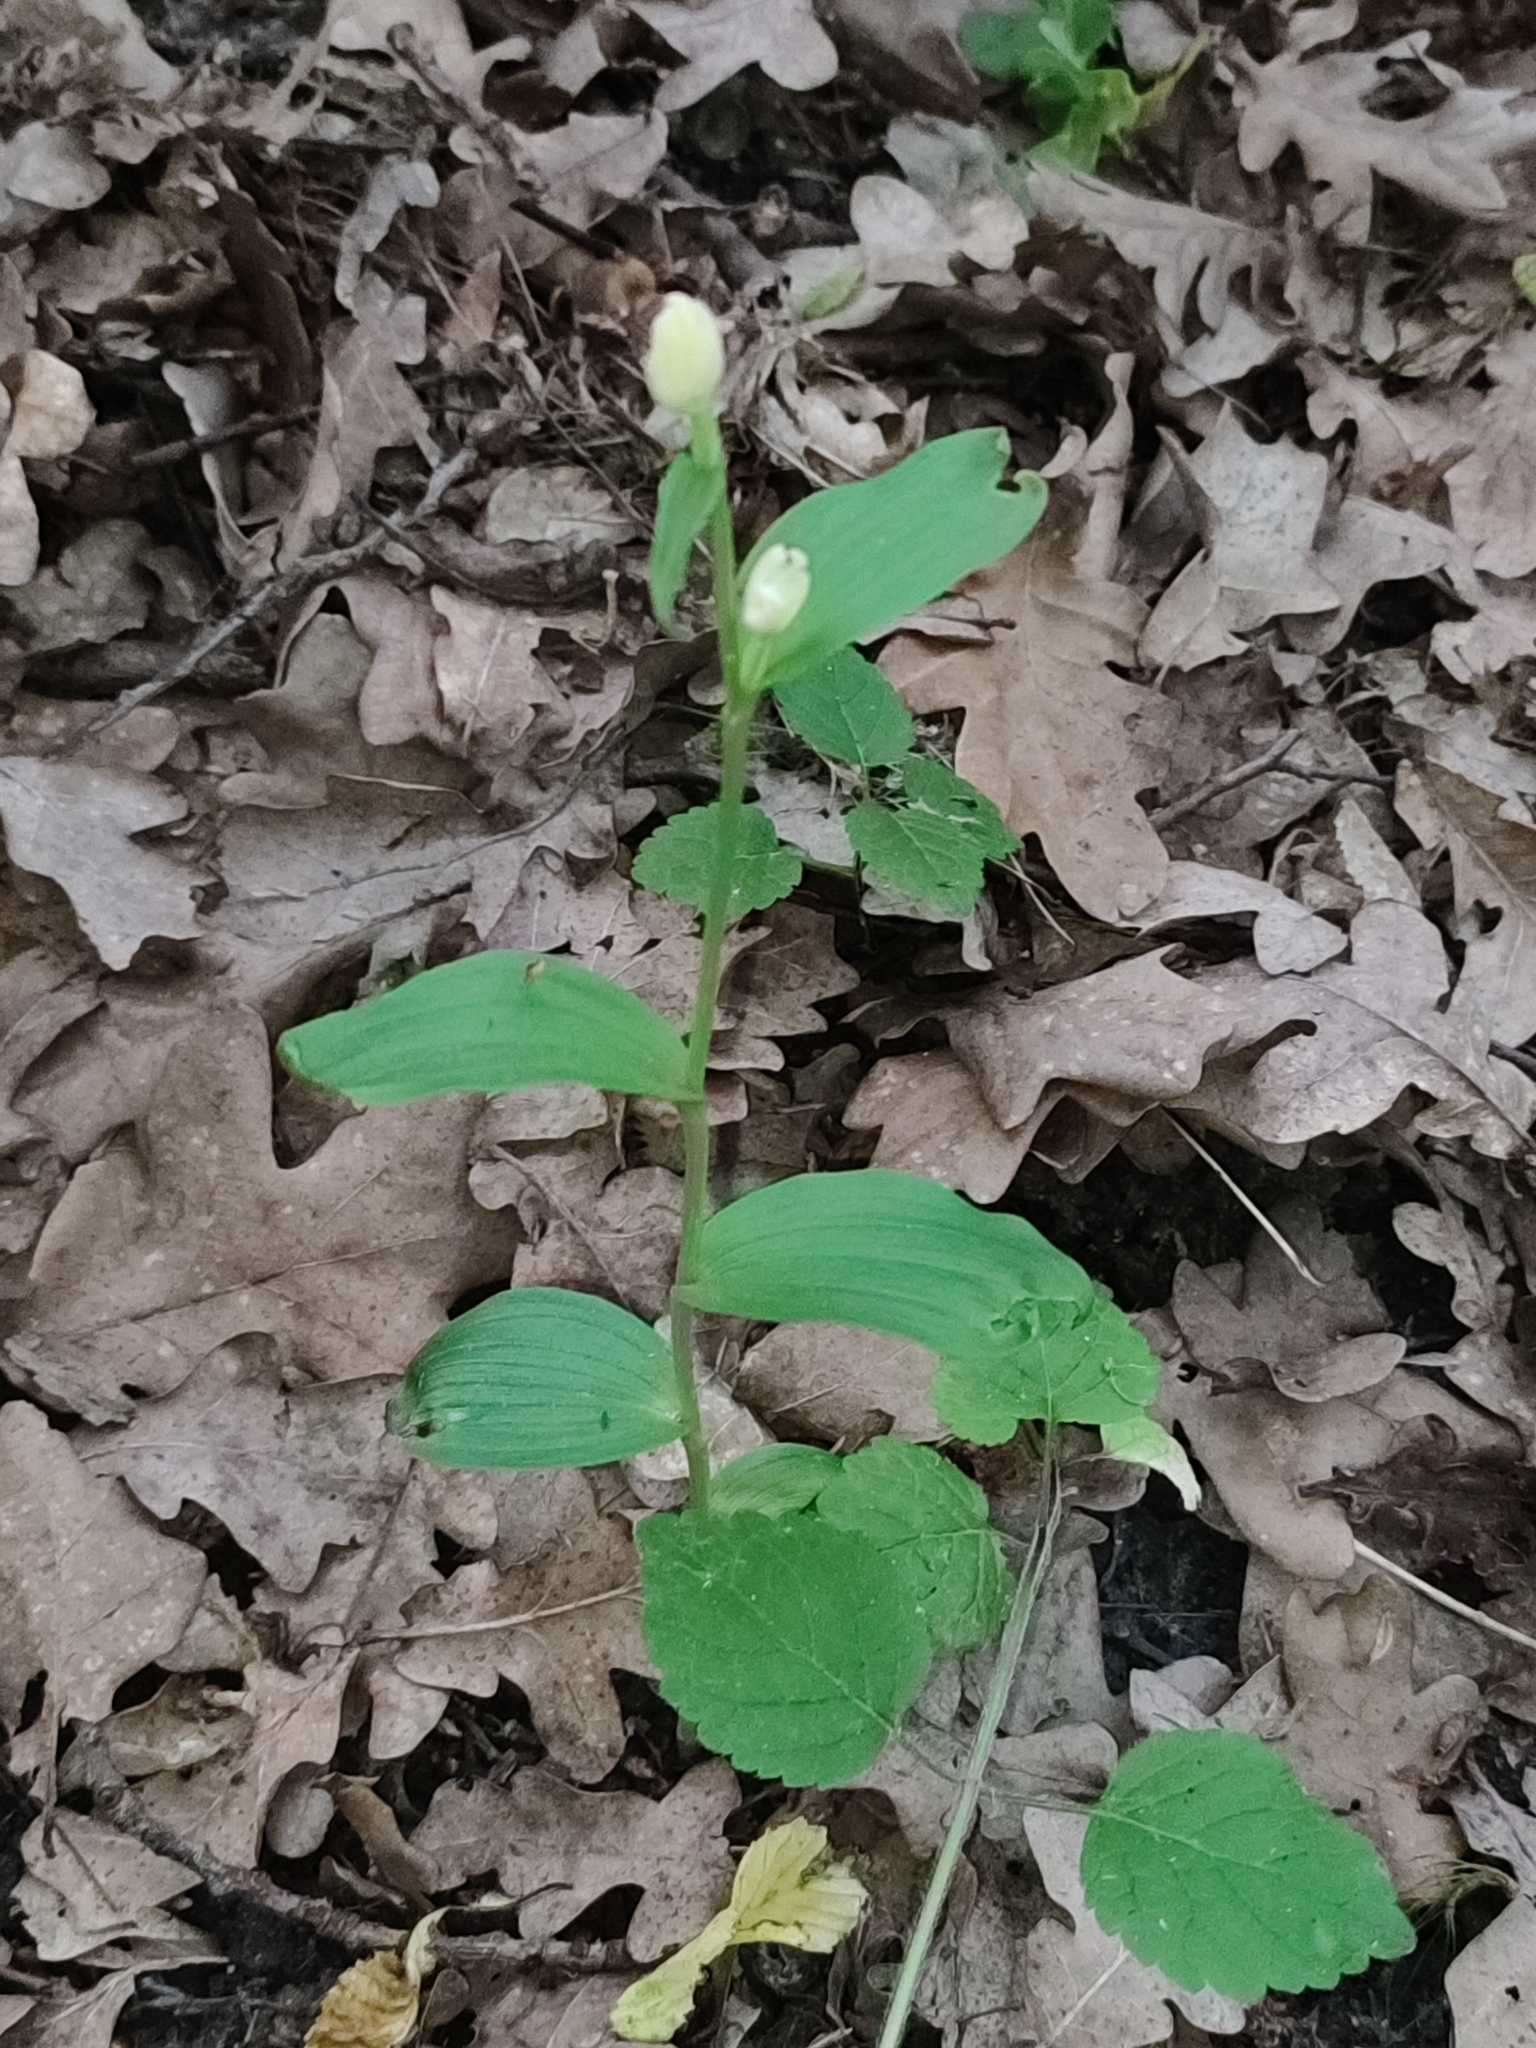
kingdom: Plantae
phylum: Tracheophyta
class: Liliopsida
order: Asparagales
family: Orchidaceae
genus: Cephalanthera
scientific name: Cephalanthera damasonium
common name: White helleborine
